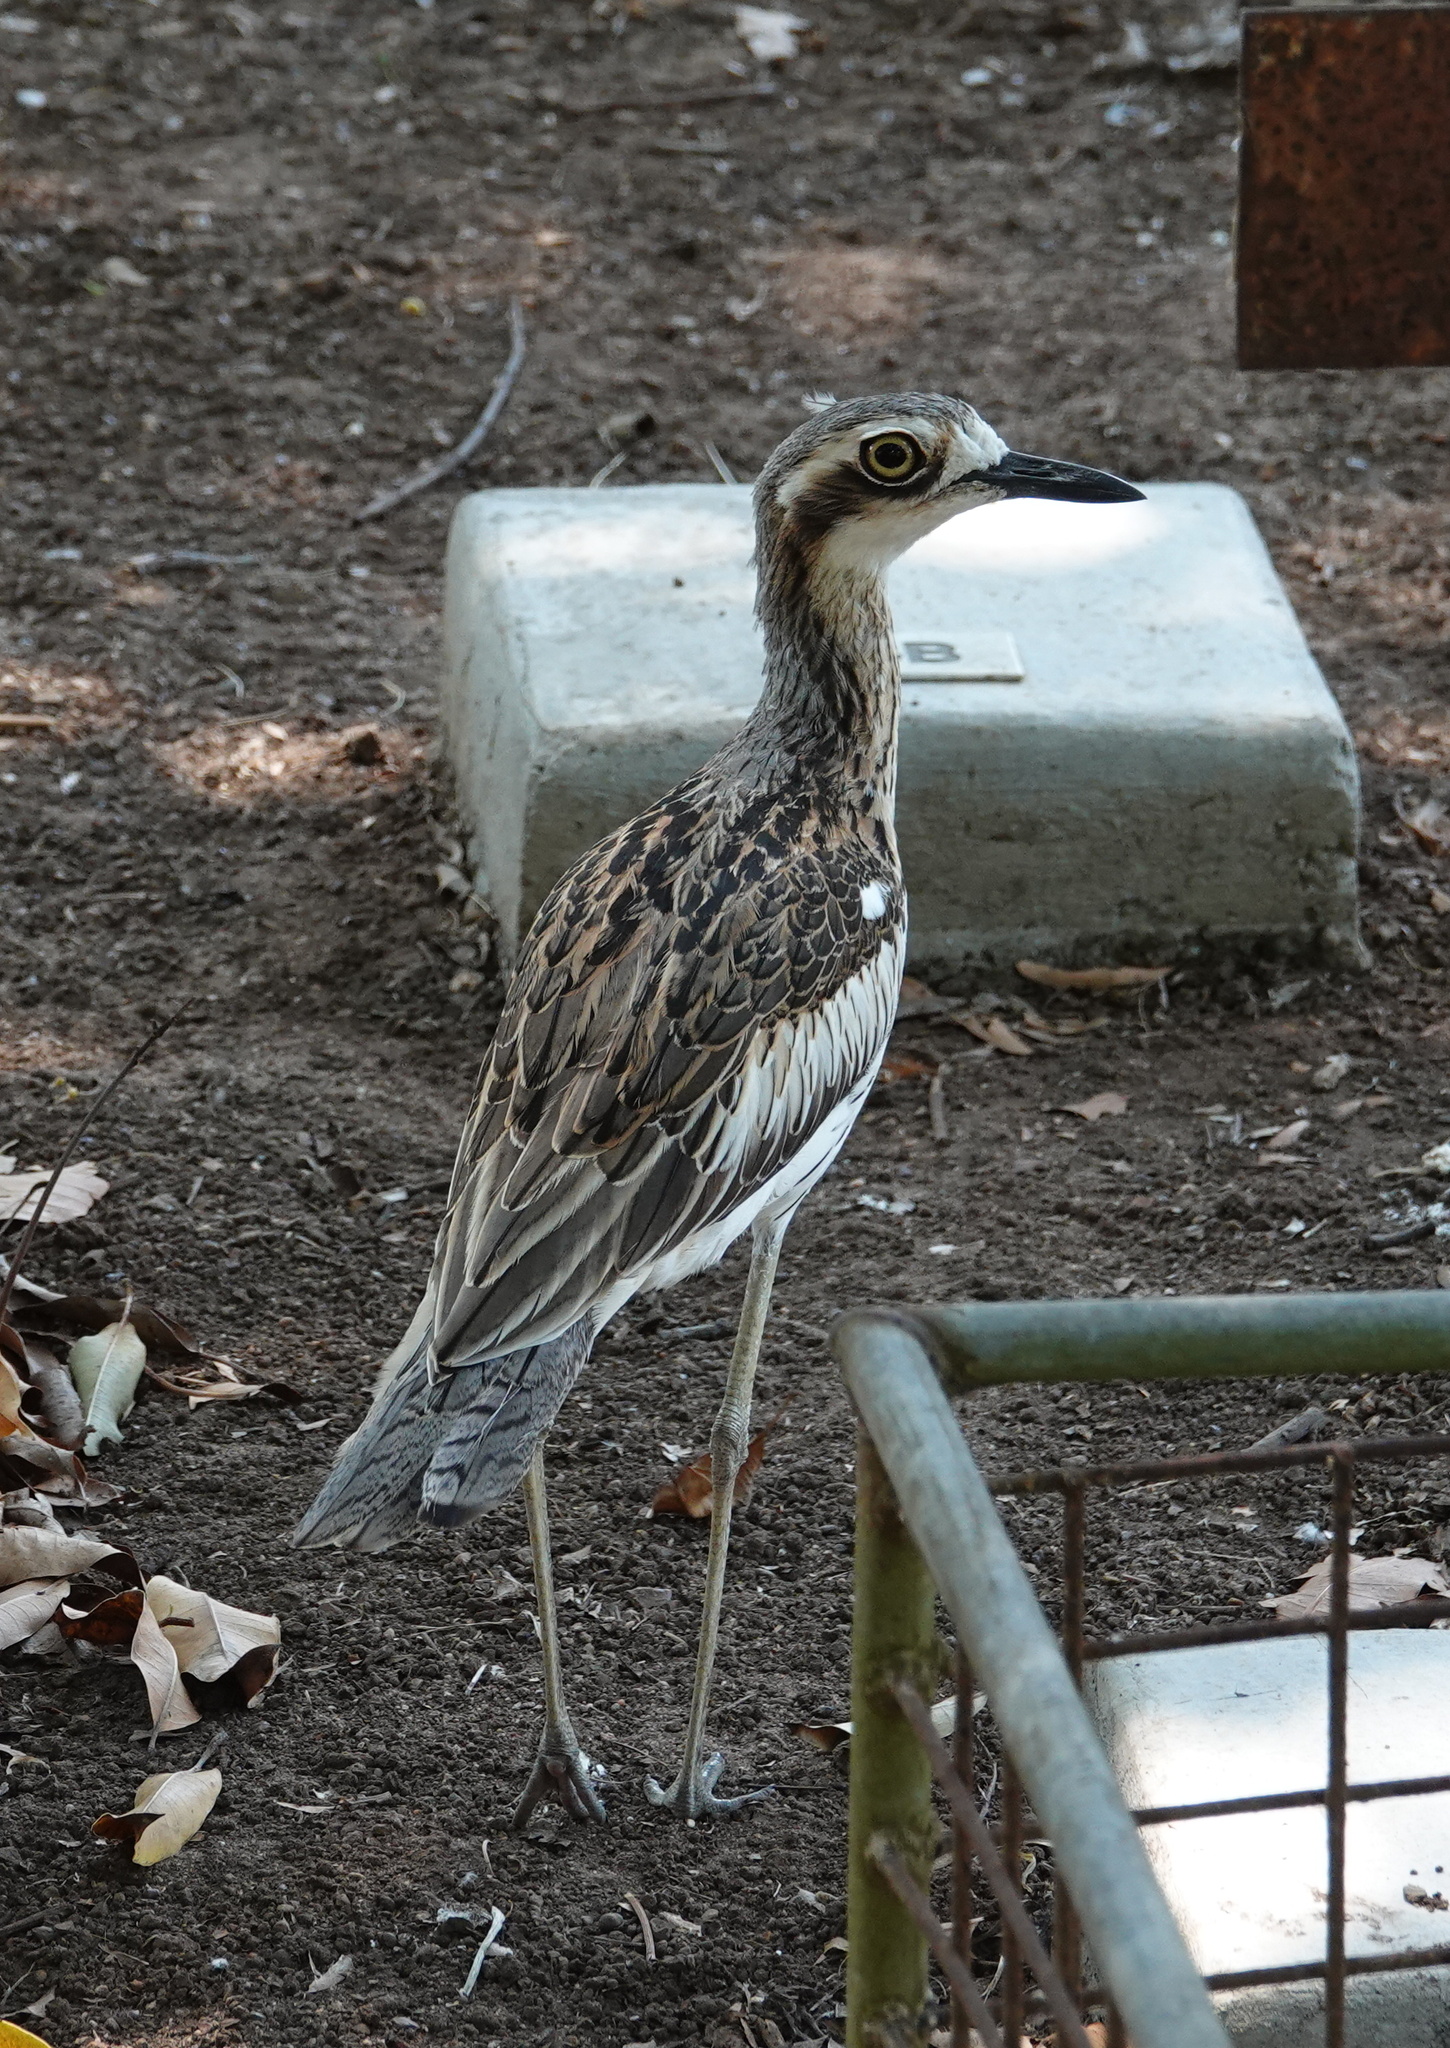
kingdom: Animalia
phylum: Chordata
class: Aves
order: Charadriiformes
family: Burhinidae
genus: Burhinus
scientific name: Burhinus grallarius
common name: Bush stone-curlew
